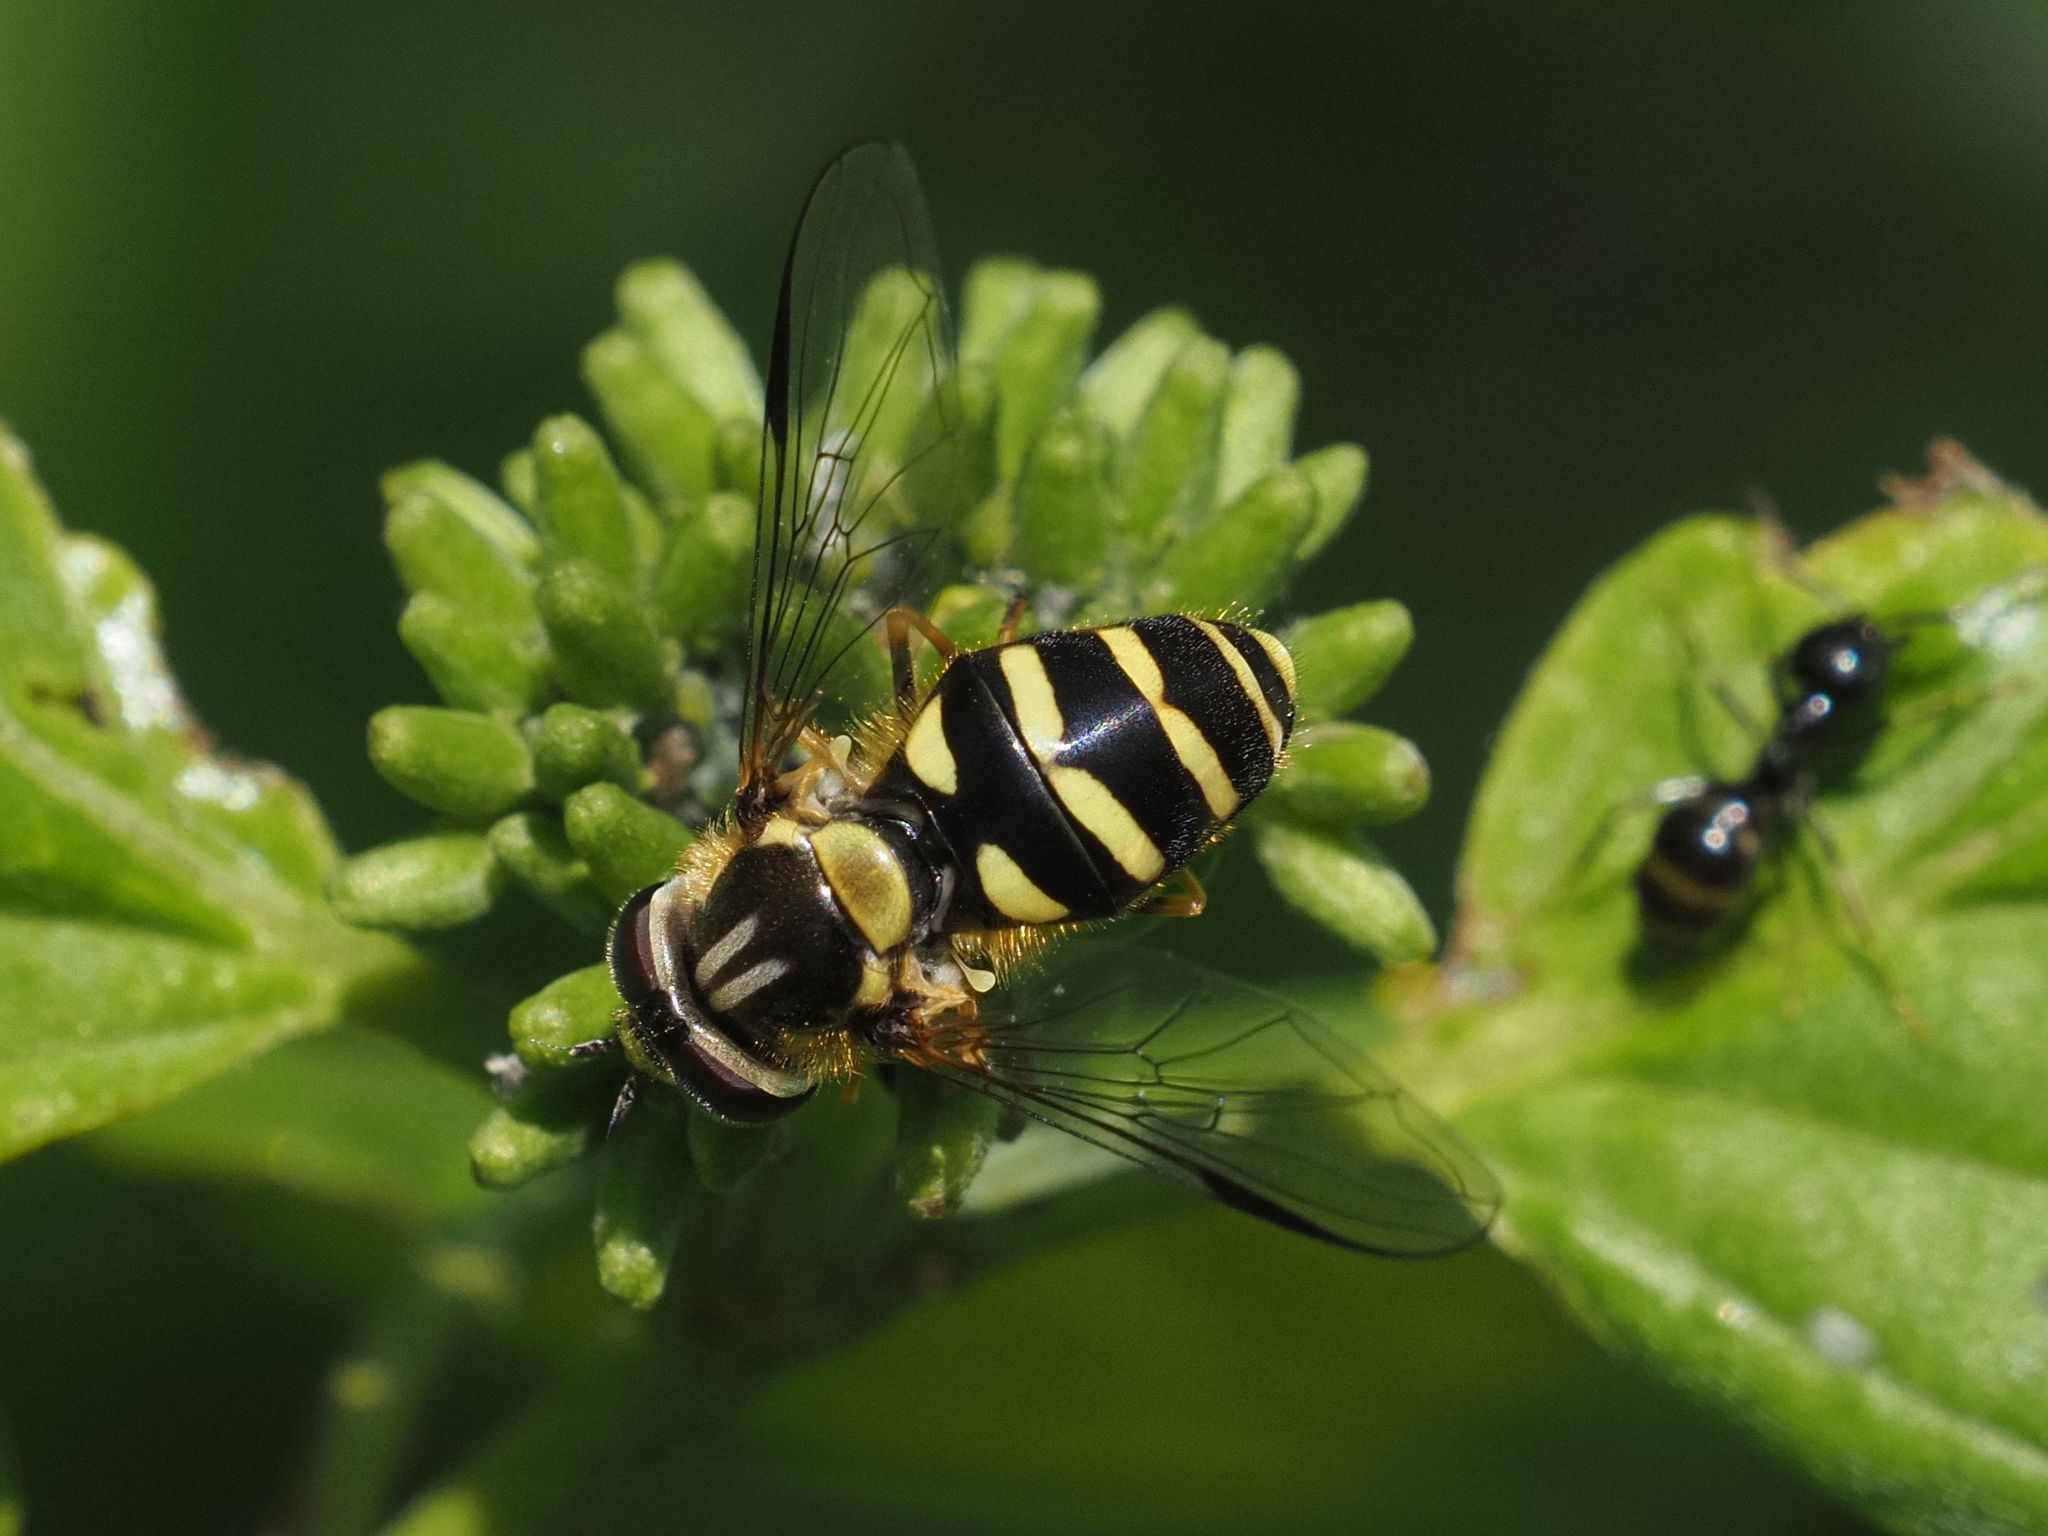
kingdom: Animalia
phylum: Arthropoda
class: Insecta
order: Diptera
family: Syrphidae
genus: Dasysyrphus
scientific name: Dasysyrphus albostriatus
